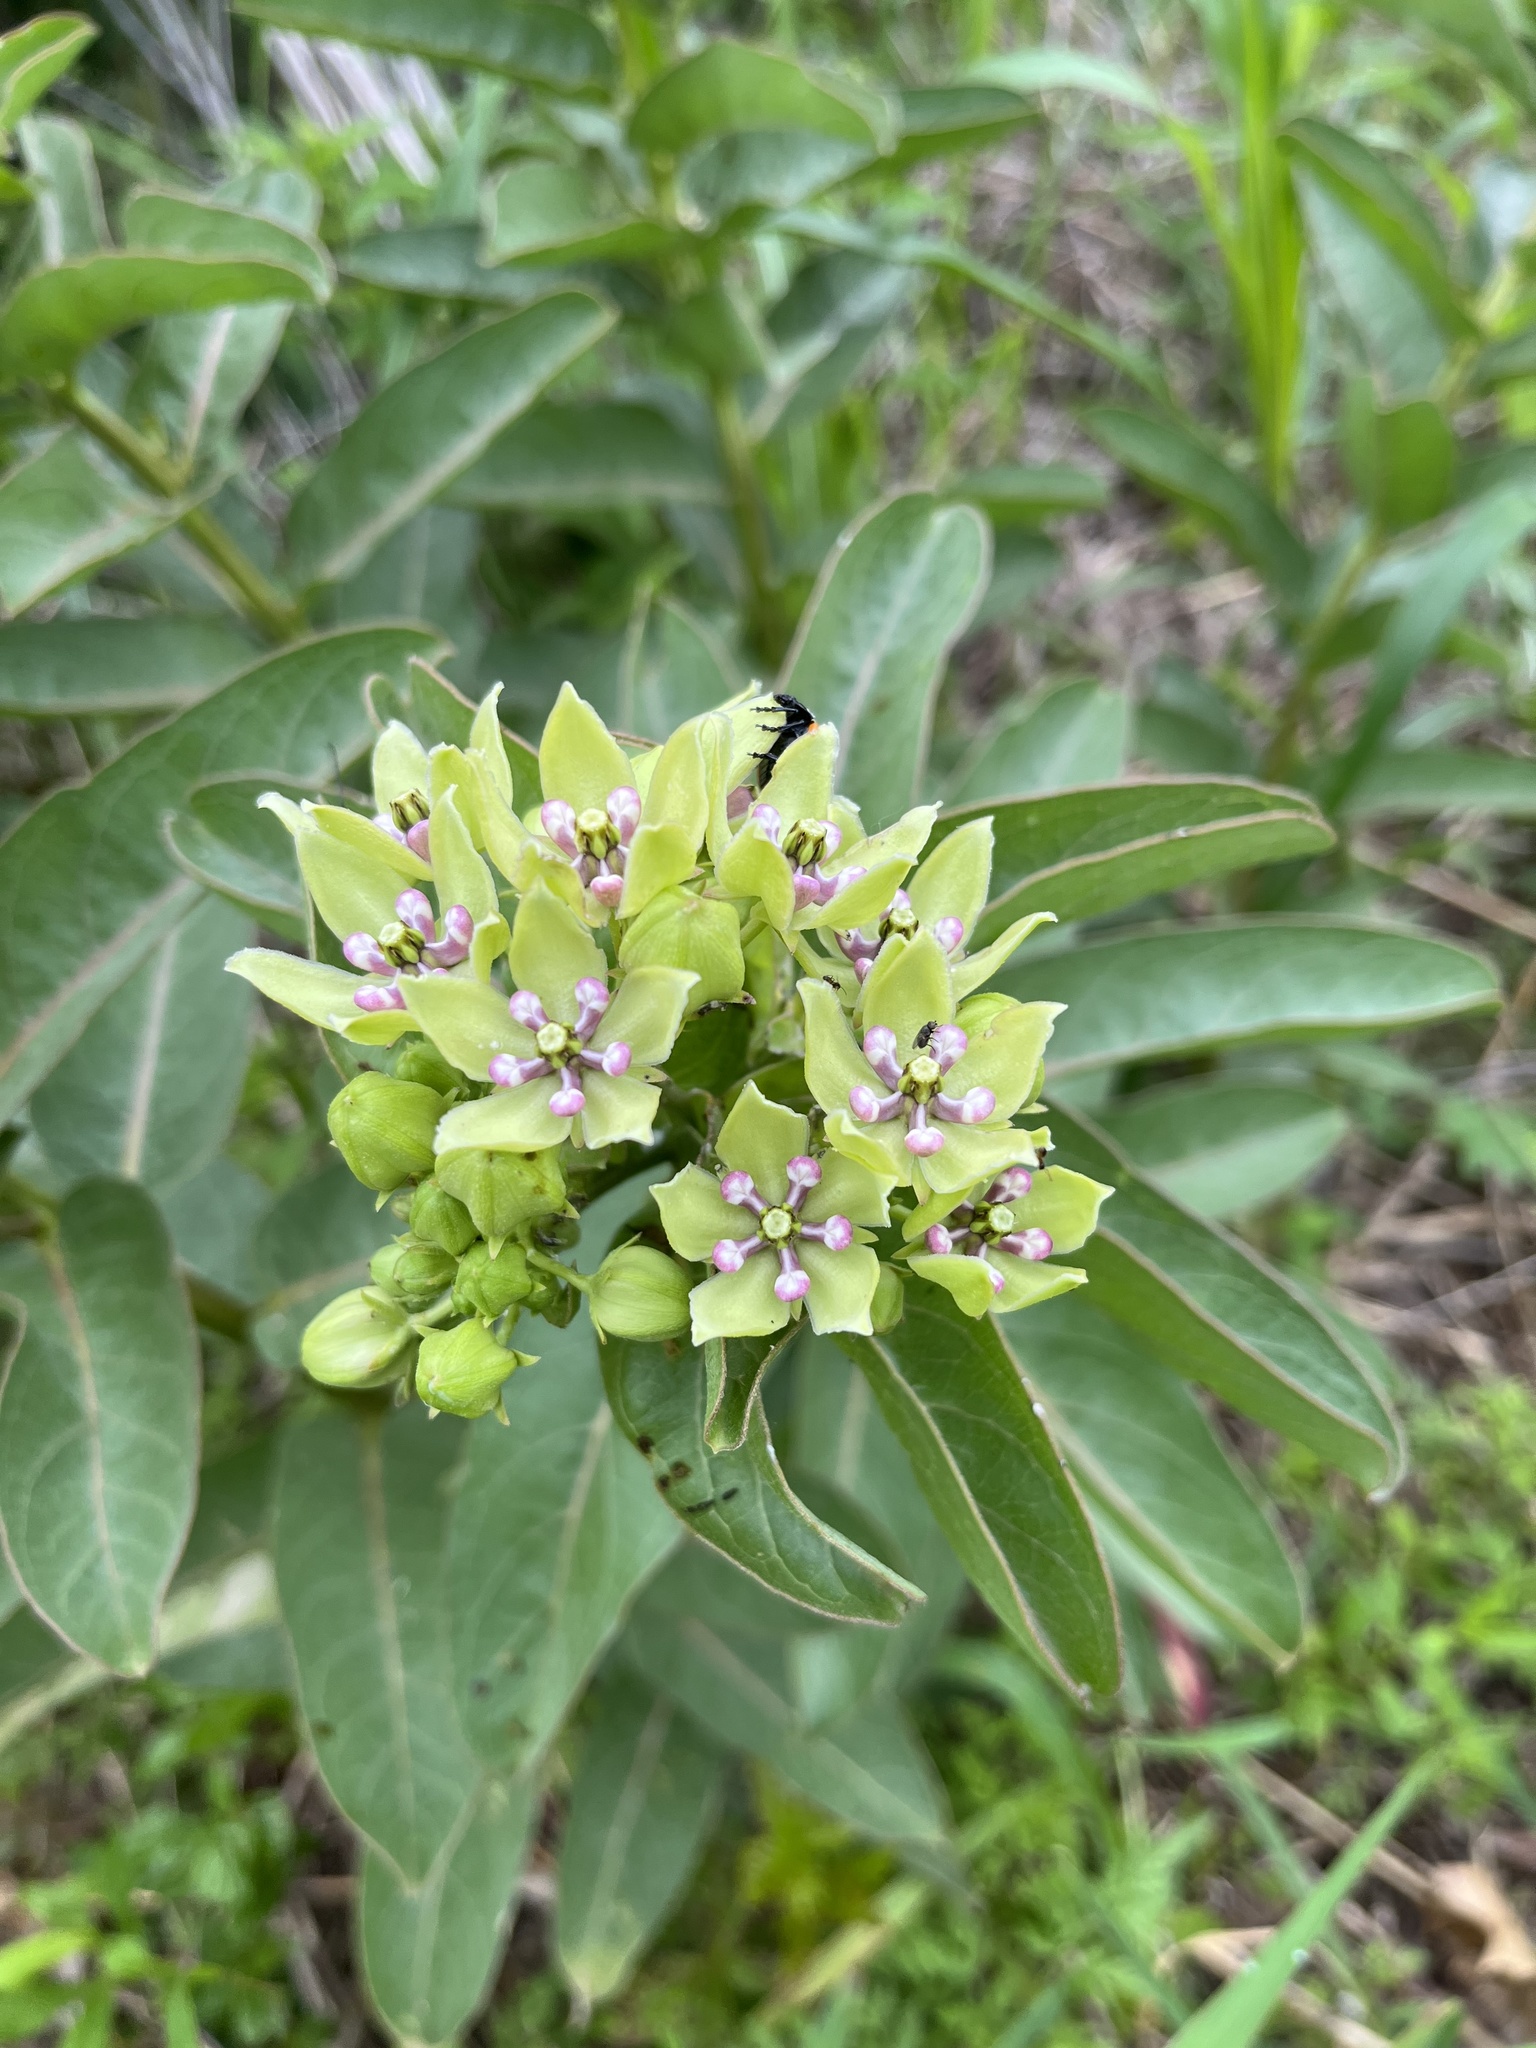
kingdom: Plantae
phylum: Tracheophyta
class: Magnoliopsida
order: Gentianales
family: Apocynaceae
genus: Asclepias
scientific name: Asclepias viridis
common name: Antelope-horns
